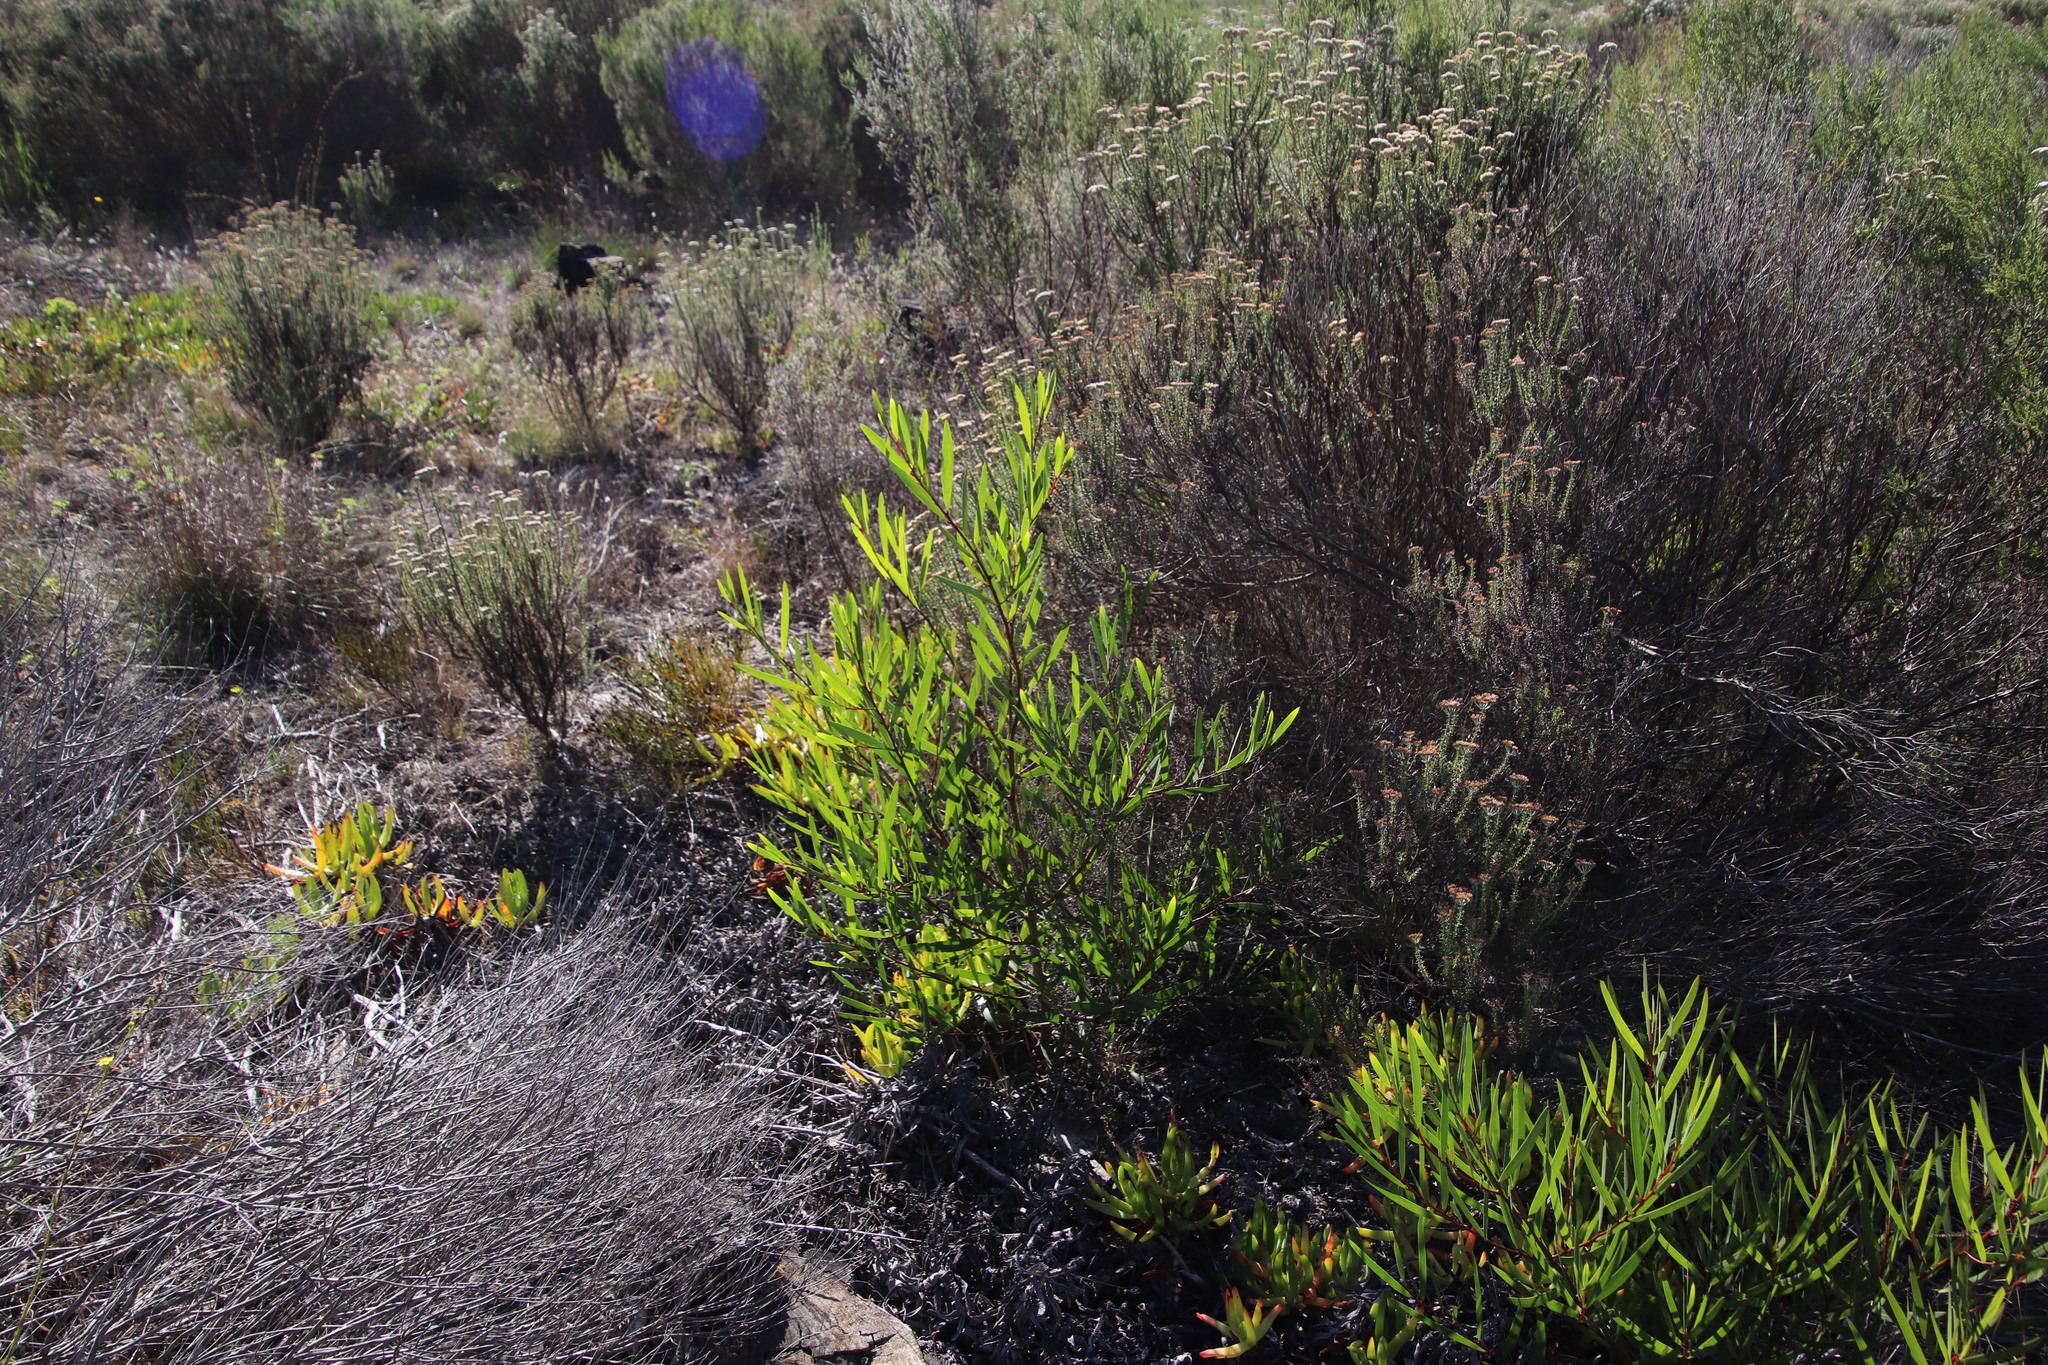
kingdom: Plantae
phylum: Tracheophyta
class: Magnoliopsida
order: Fabales
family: Fabaceae
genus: Acacia
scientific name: Acacia longifolia
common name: Sydney golden wattle
